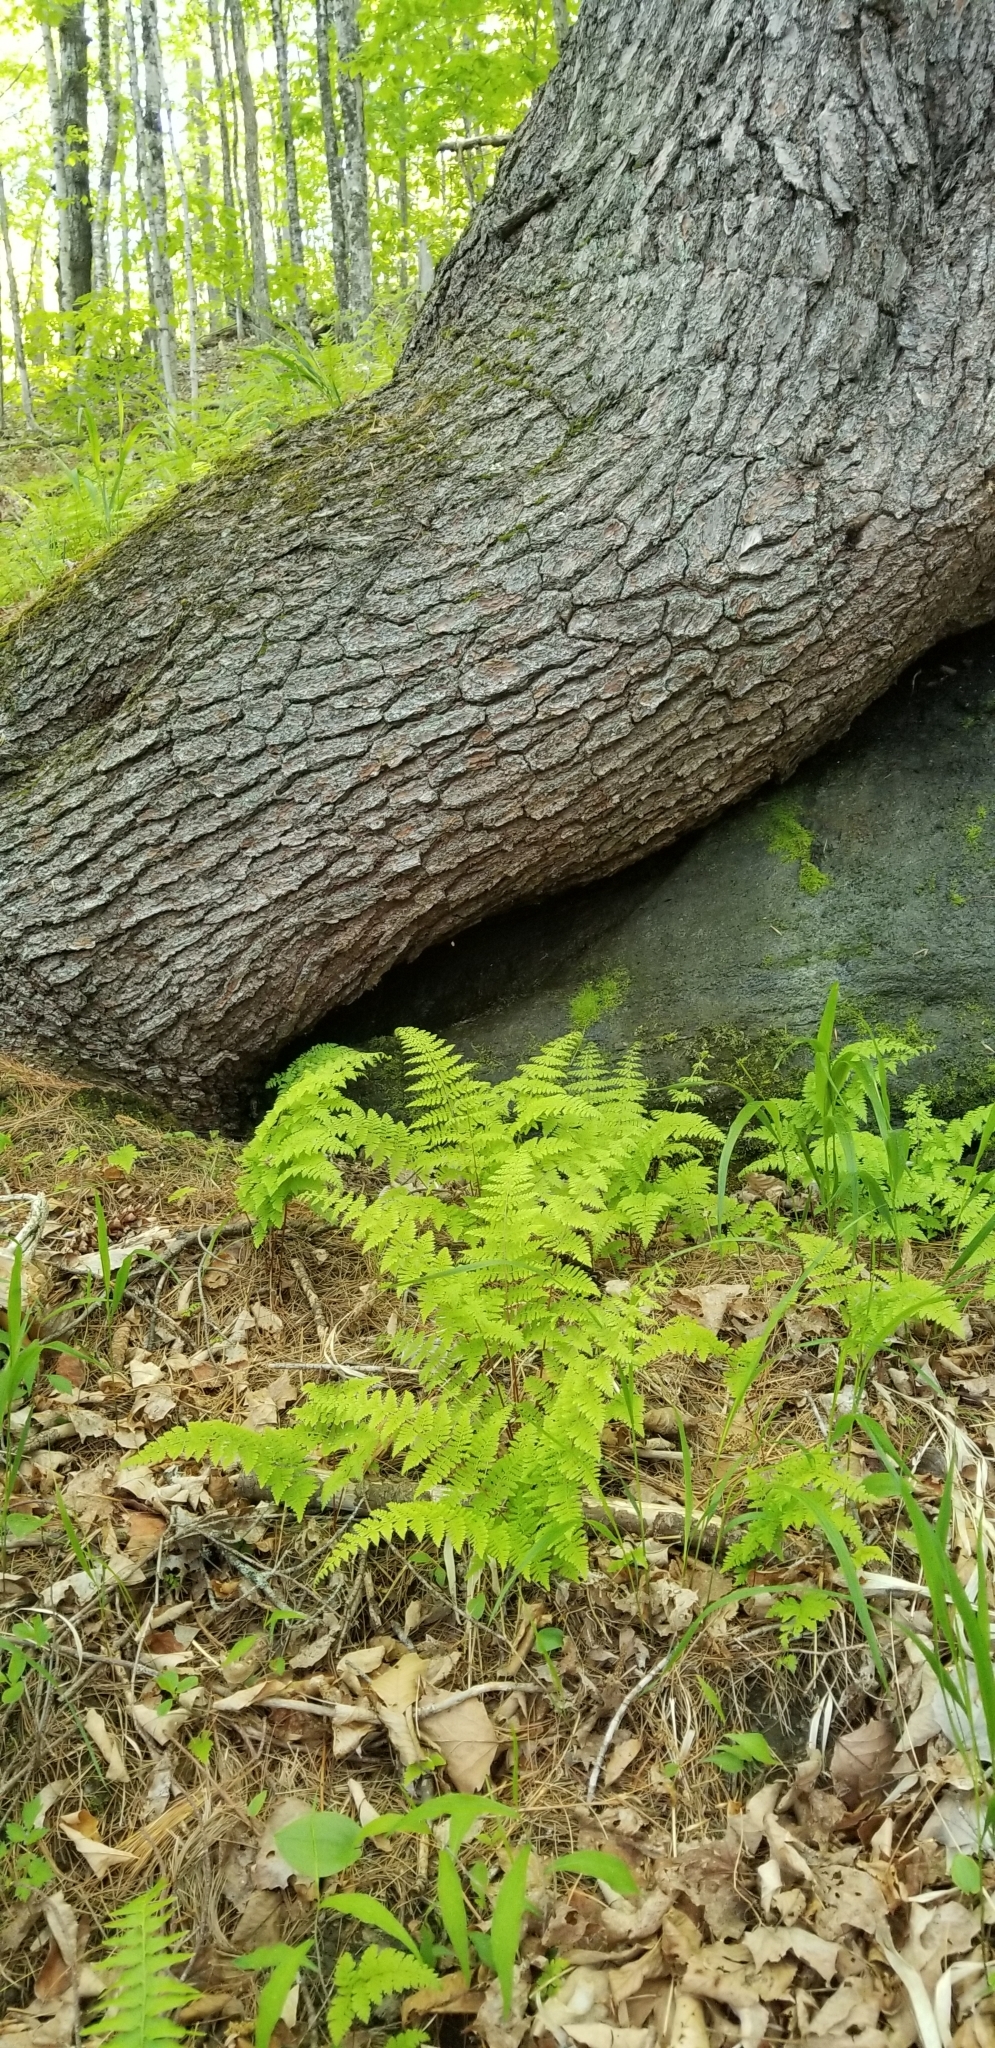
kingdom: Plantae
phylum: Tracheophyta
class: Polypodiopsida
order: Polypodiales
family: Cystopteridaceae
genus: Cystopteris
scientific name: Cystopteris bulbifera
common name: Bulblet bladder fern
